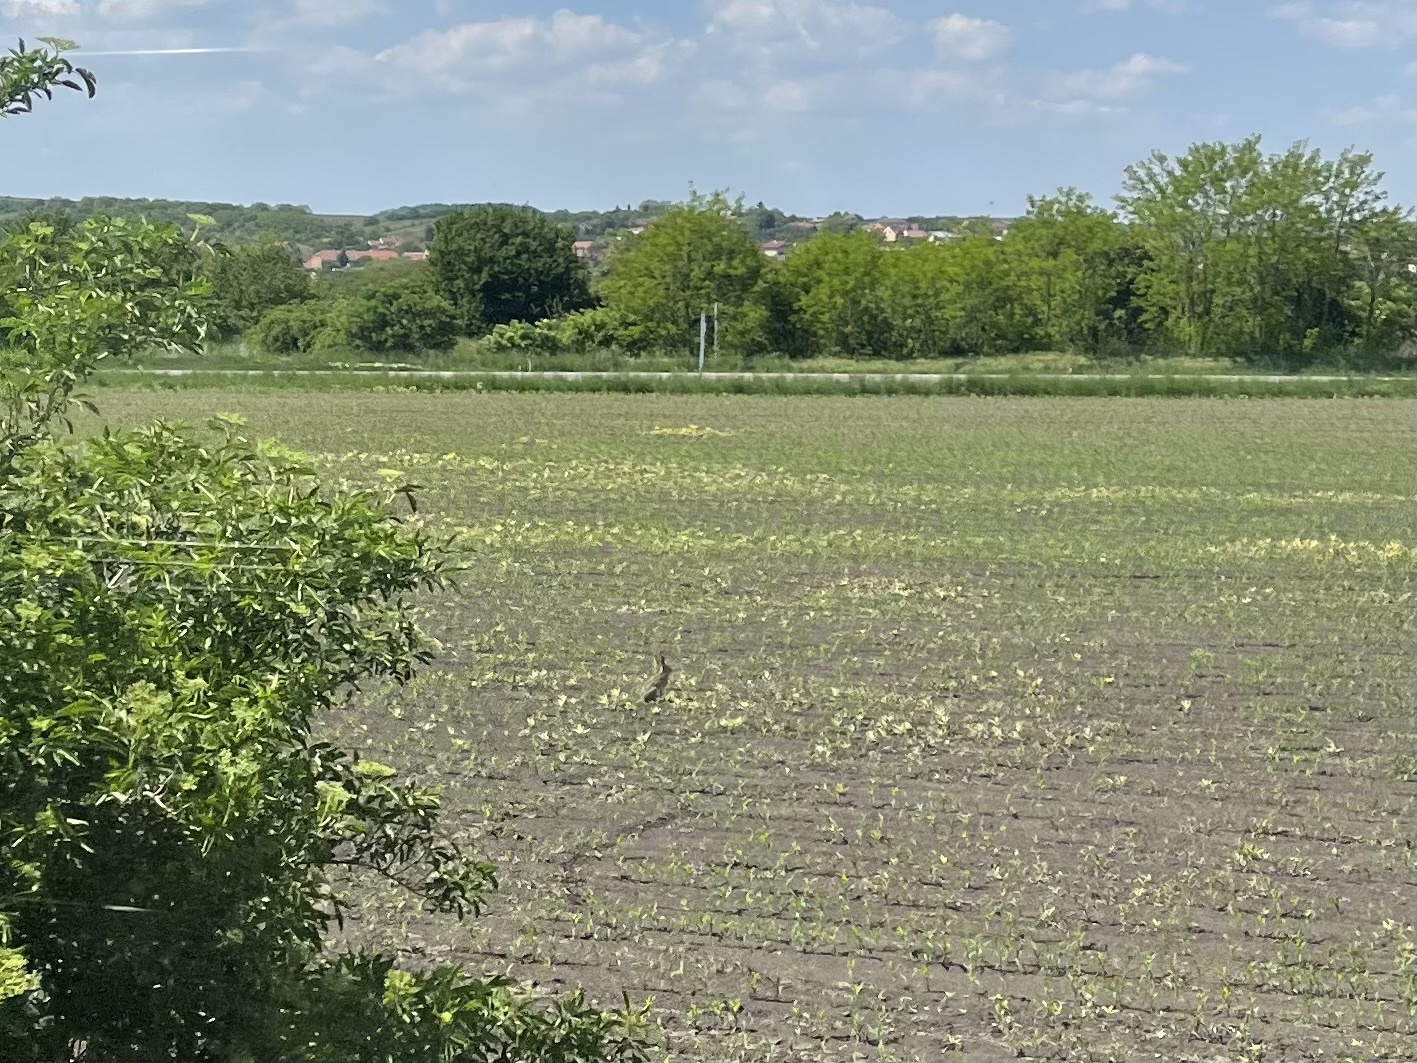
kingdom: Animalia
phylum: Chordata
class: Mammalia
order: Lagomorpha
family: Leporidae
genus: Lepus
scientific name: Lepus europaeus
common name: European hare
